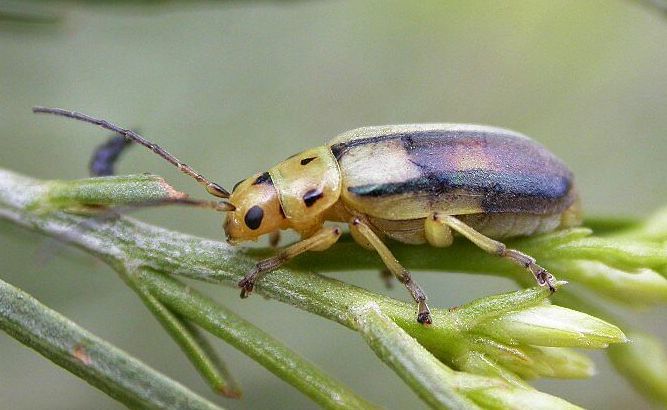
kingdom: Animalia
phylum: Arthropoda
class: Insecta
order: Coleoptera
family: Chrysomelidae
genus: Trirhabda
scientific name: Trirhabda nitidicollis
